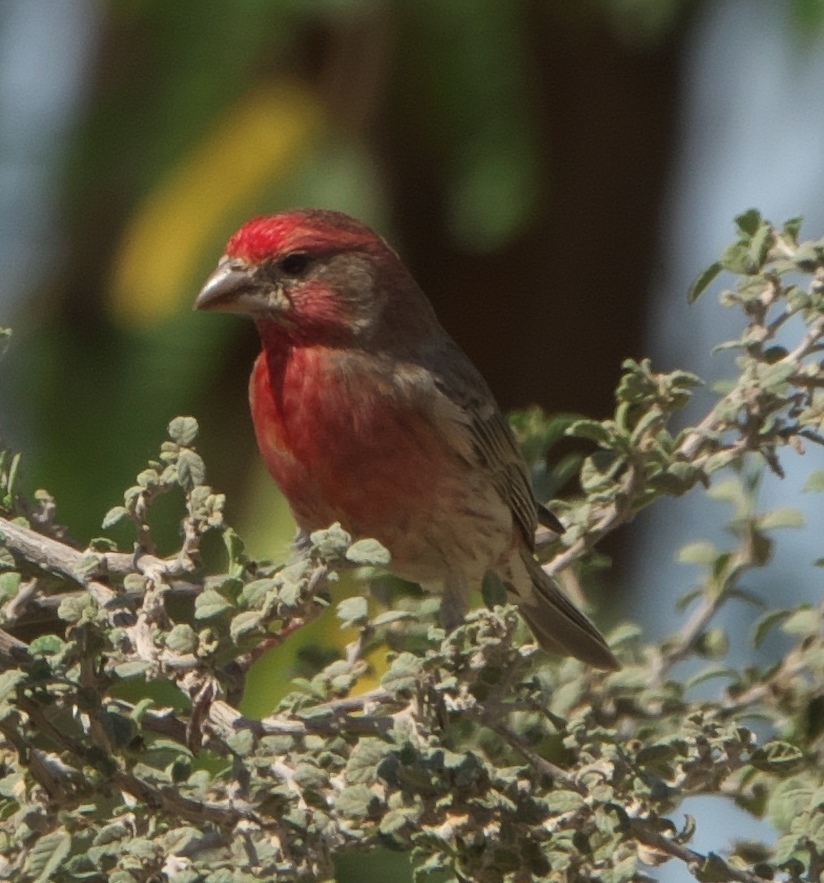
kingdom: Animalia
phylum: Chordata
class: Aves
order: Passeriformes
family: Fringillidae
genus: Haemorhous
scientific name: Haemorhous mexicanus
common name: House finch
